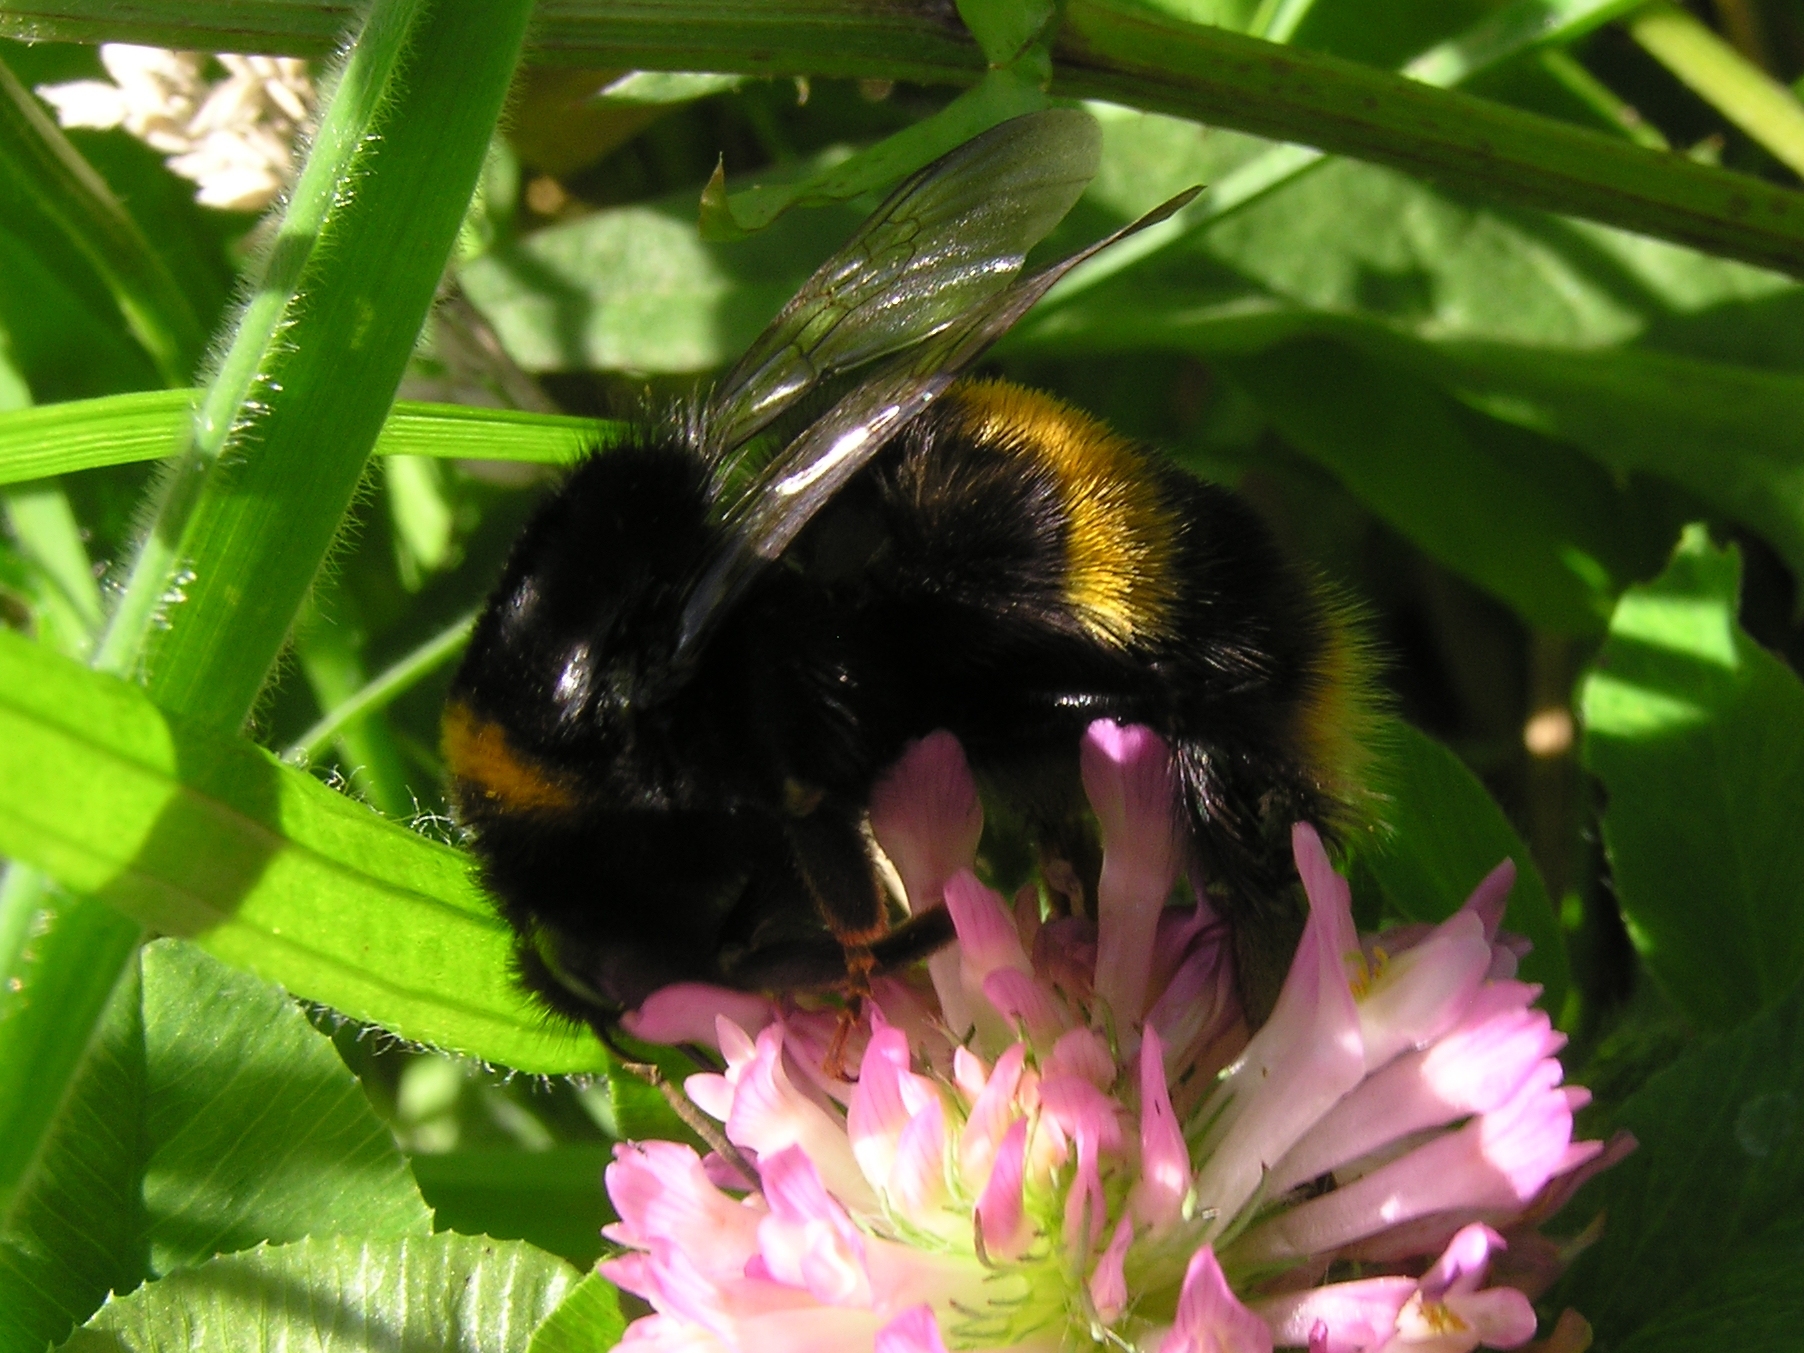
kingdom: Animalia
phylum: Arthropoda
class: Insecta
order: Hymenoptera
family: Apidae
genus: Bombus
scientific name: Bombus terrestris
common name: Buff-tailed bumblebee
